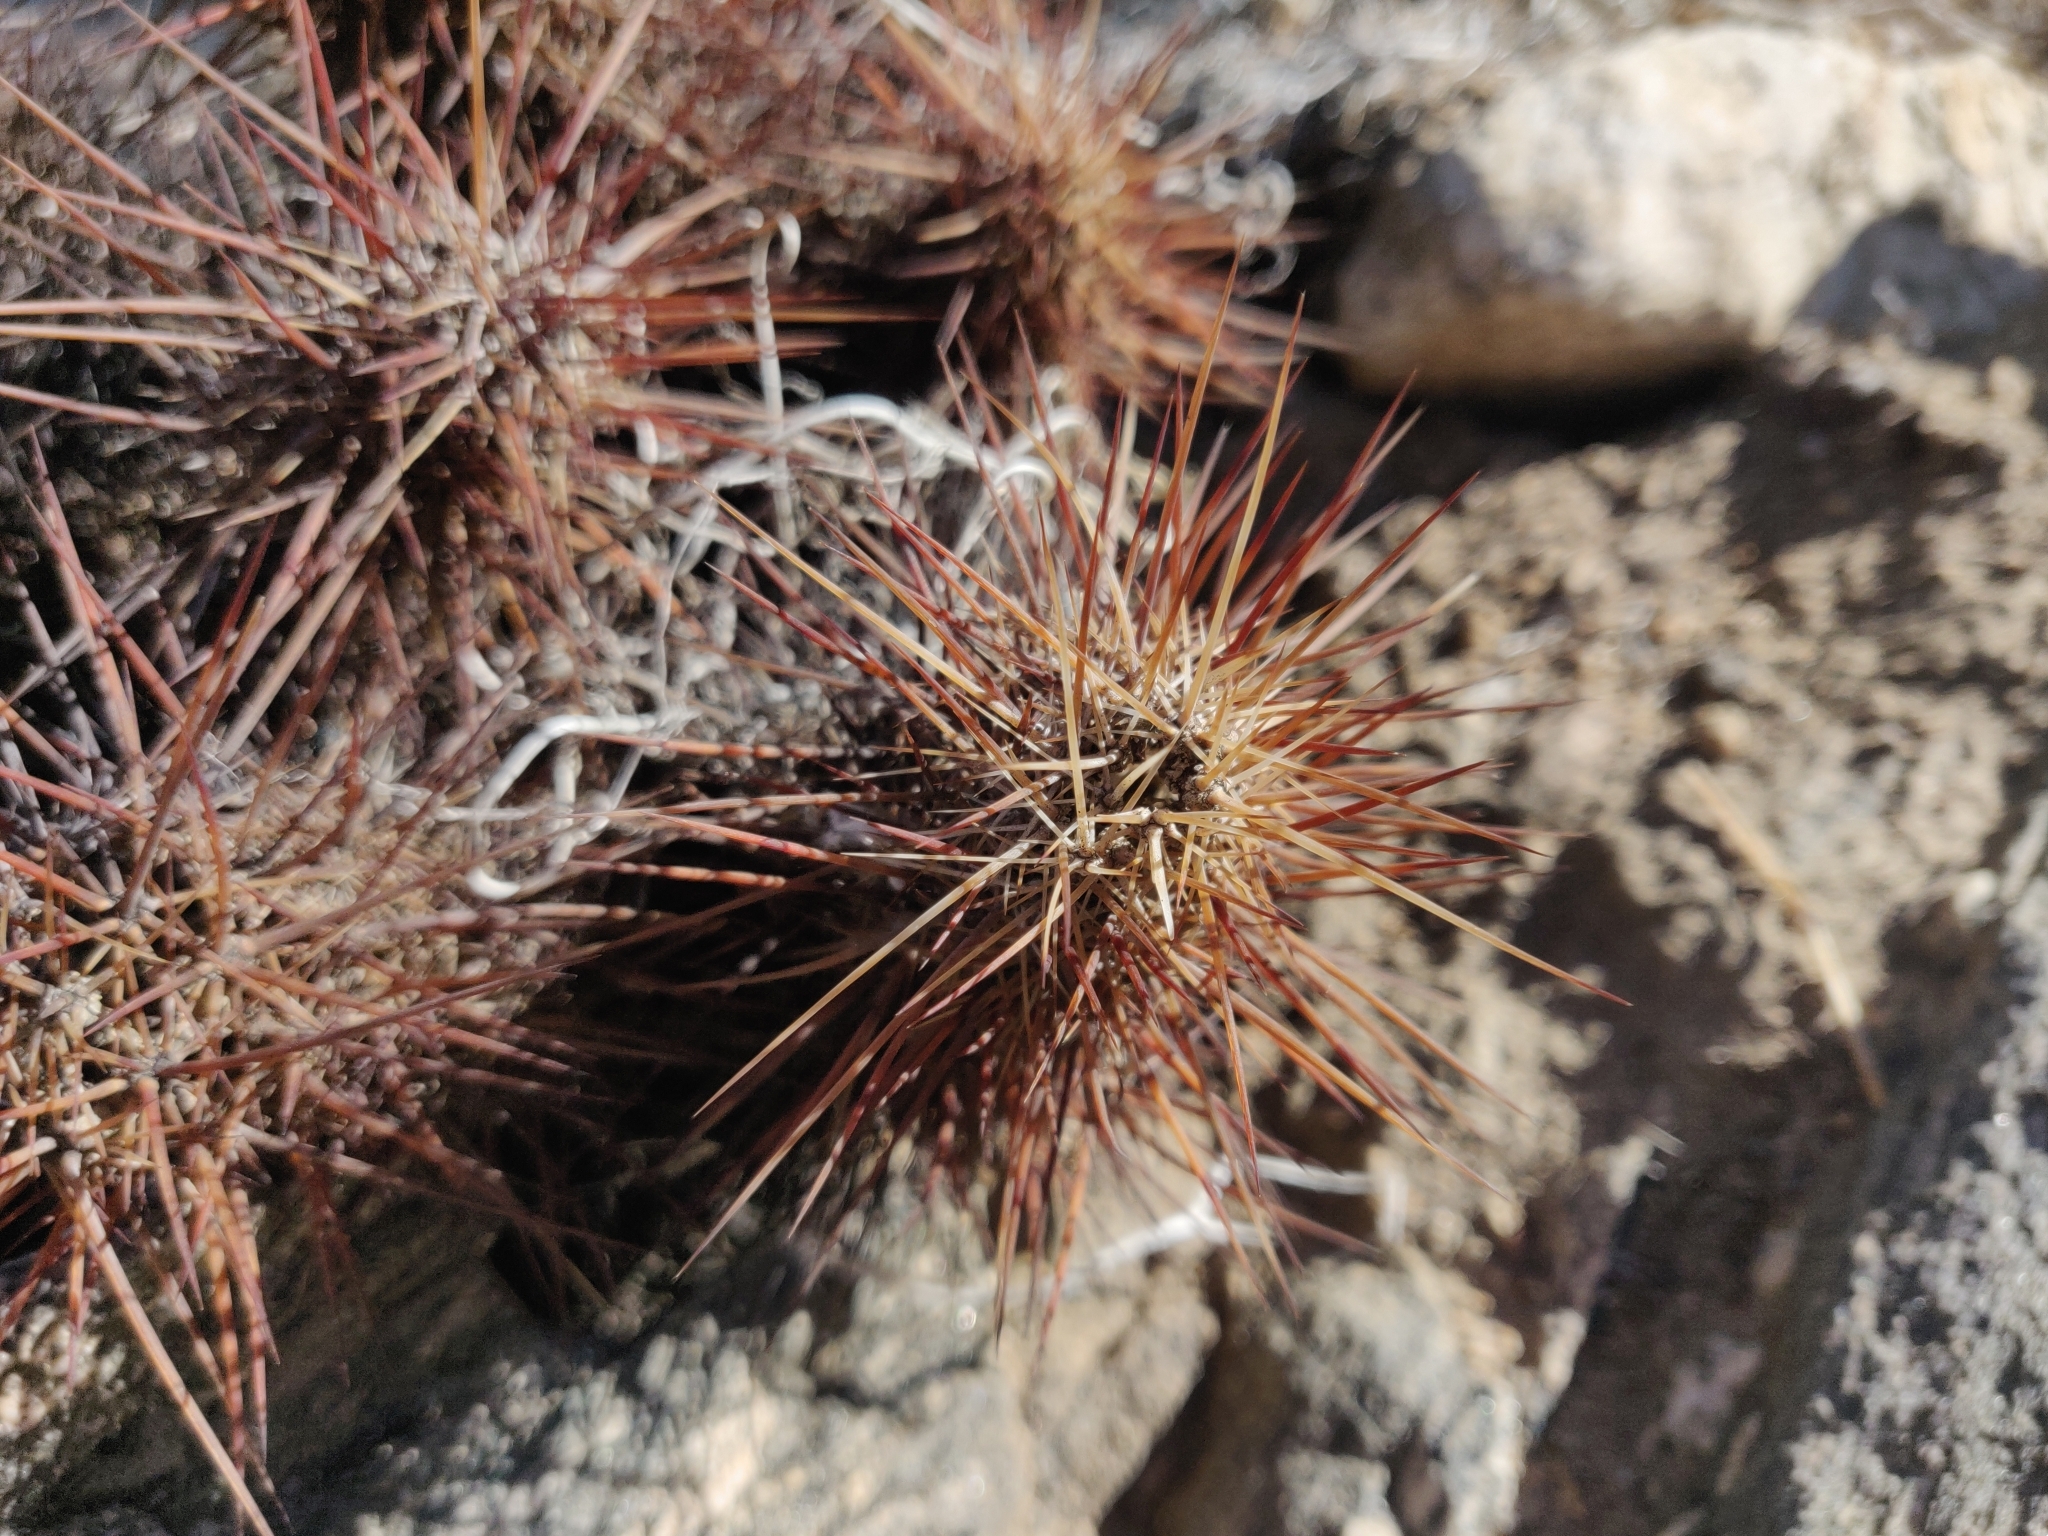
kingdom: Plantae
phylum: Tracheophyta
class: Magnoliopsida
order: Caryophyllales
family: Cactaceae
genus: Echinocereus
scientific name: Echinocereus engelmannii
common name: Engelmann's hedgehog cactus
